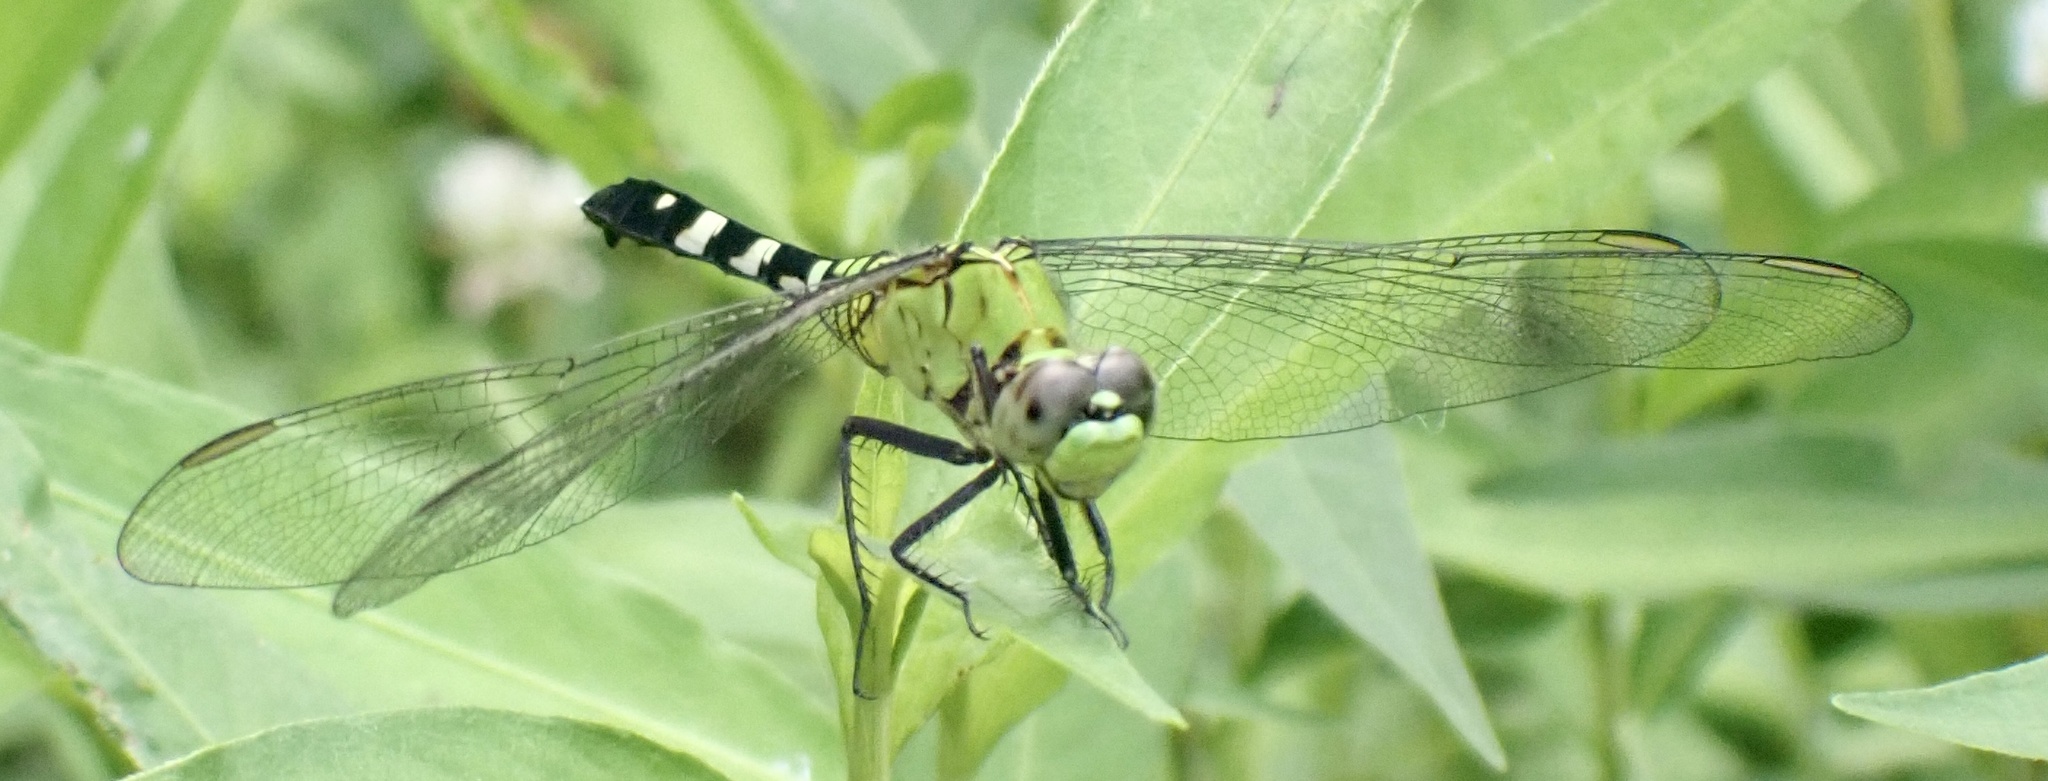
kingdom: Animalia
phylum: Arthropoda
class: Insecta
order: Odonata
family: Libellulidae
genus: Erythemis
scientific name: Erythemis simplicicollis
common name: Eastern pondhawk
